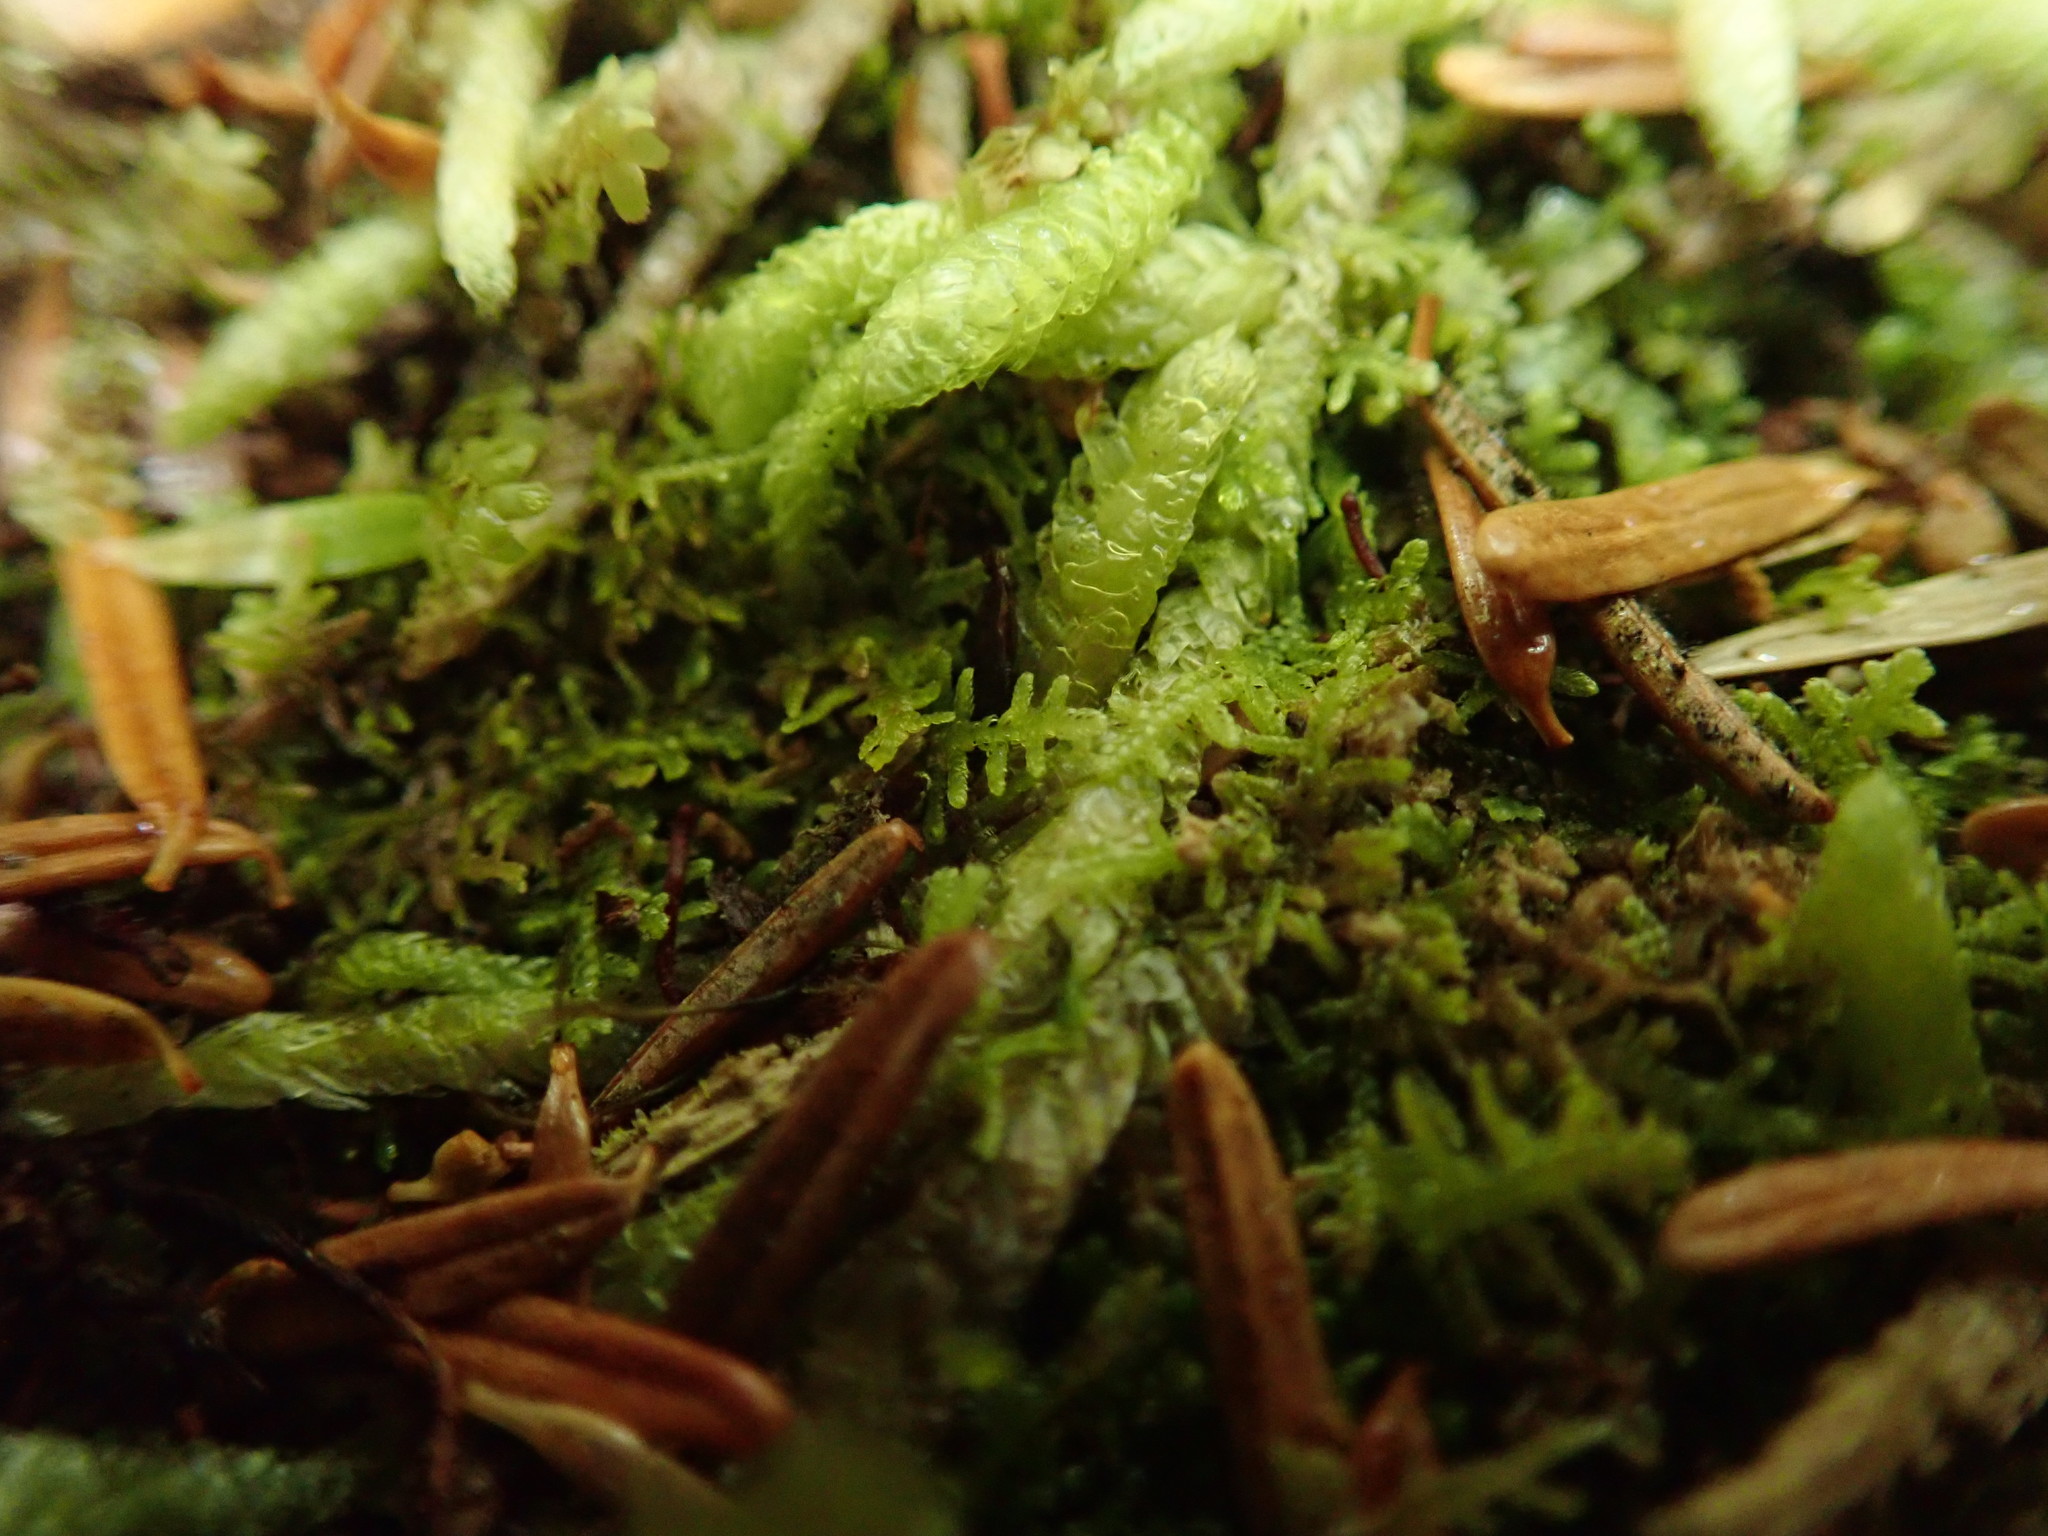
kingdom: Plantae
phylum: Marchantiophyta
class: Jungermanniopsida
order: Jungermanniales
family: Lepidoziaceae
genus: Lepidozia
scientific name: Lepidozia reptans
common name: Creeping fingerwort
